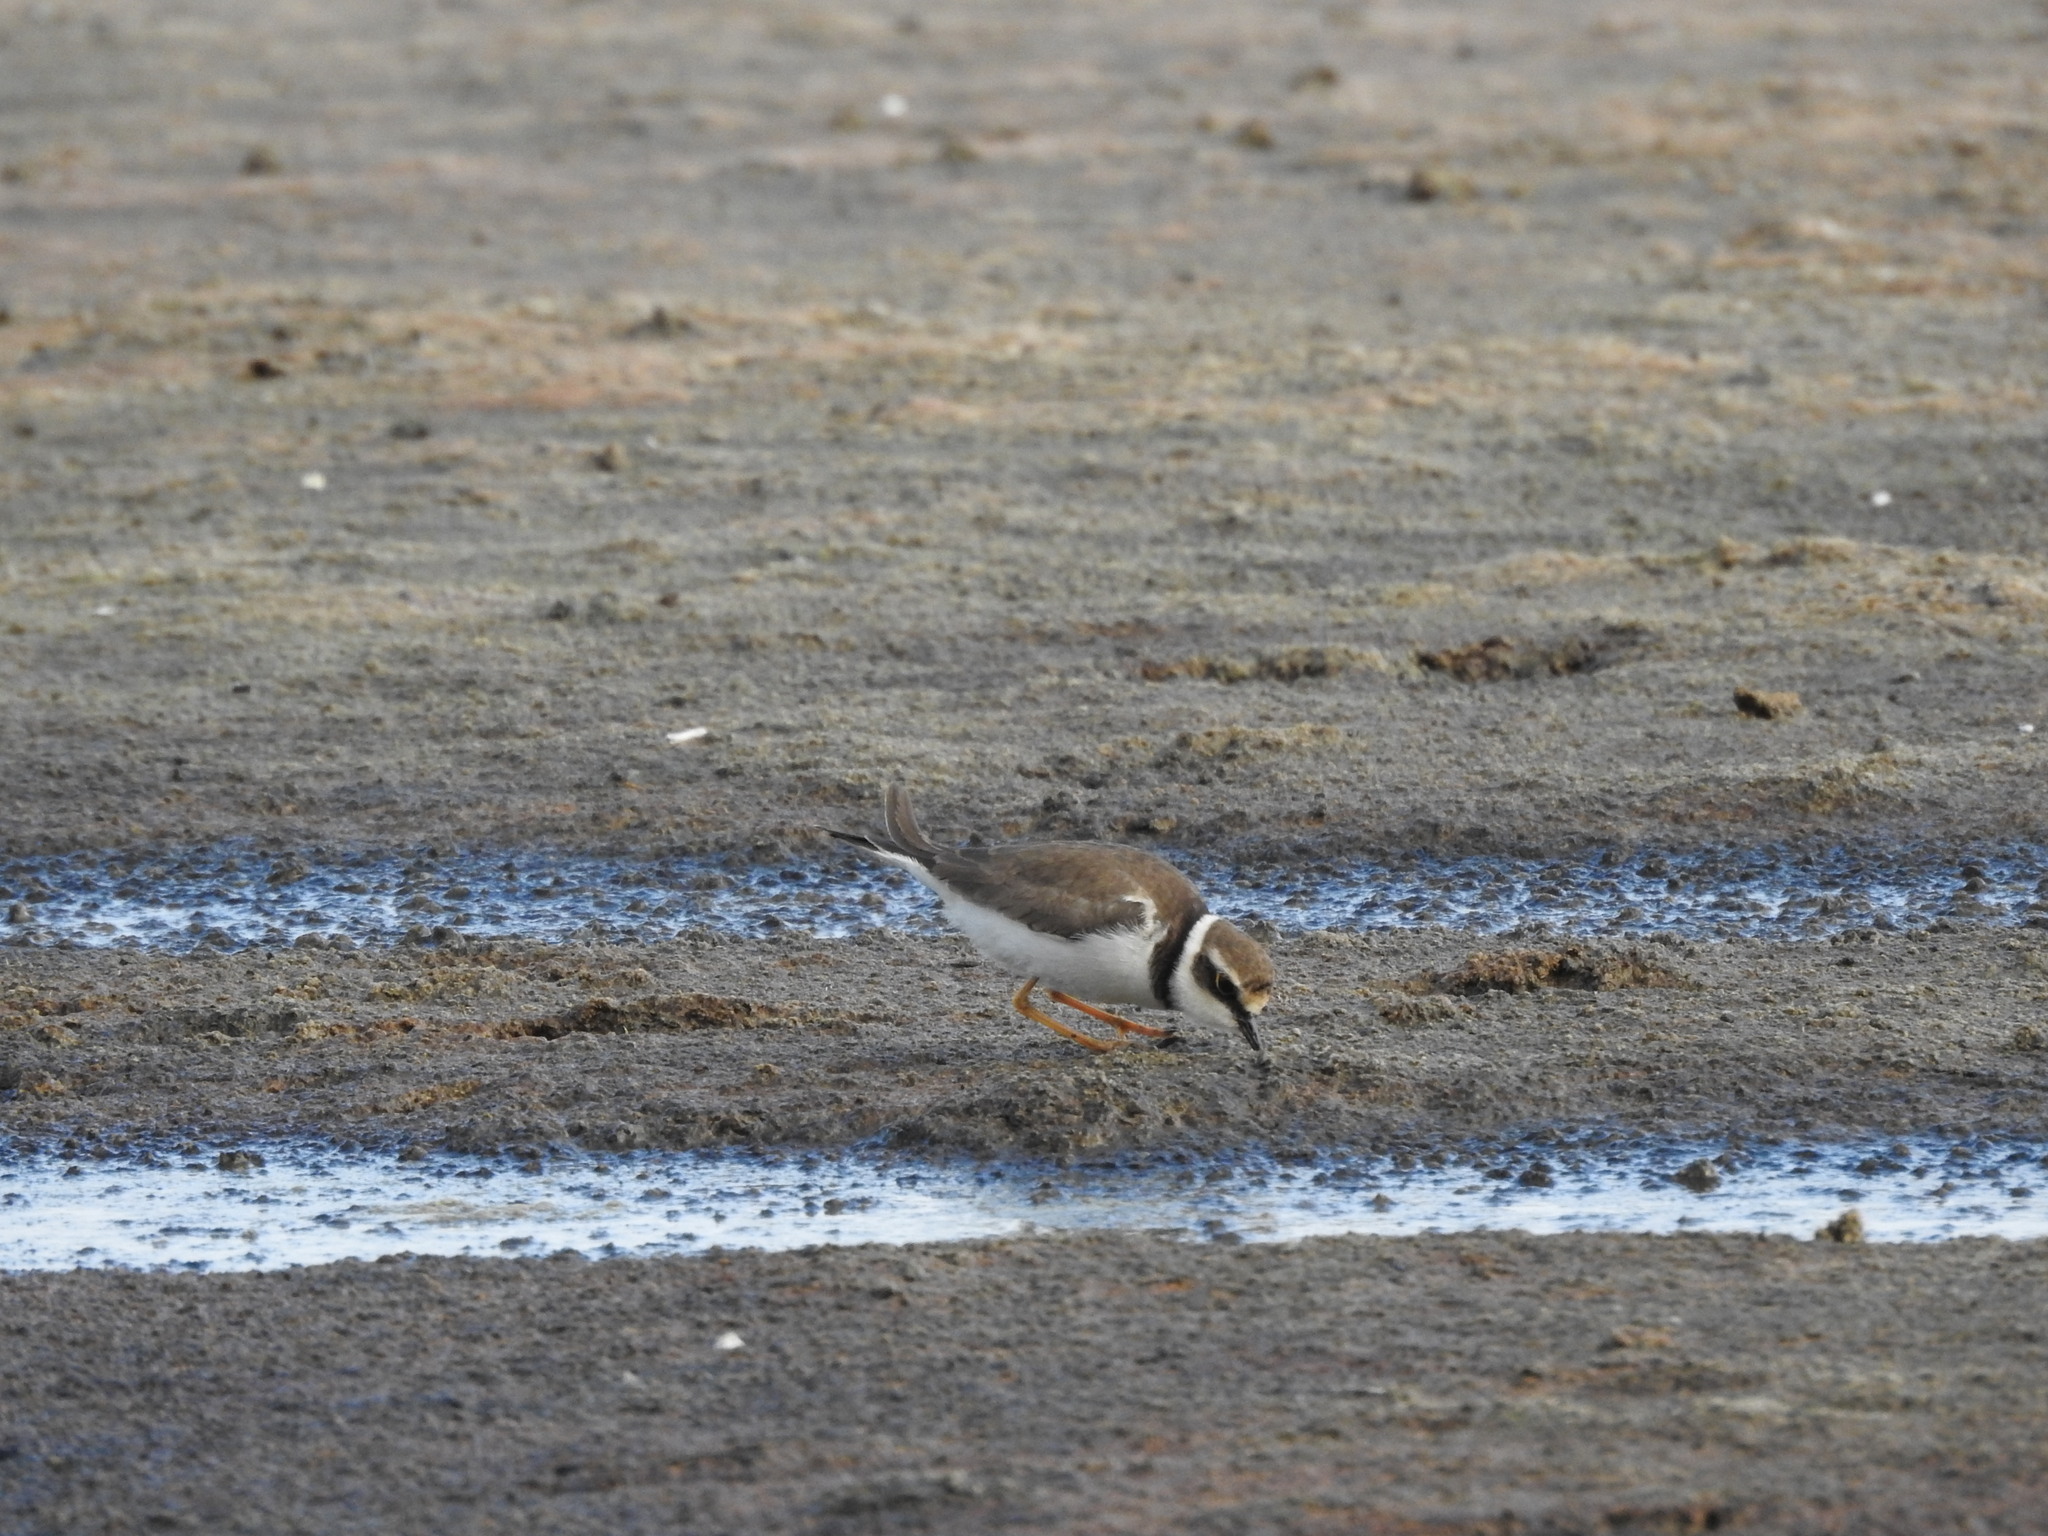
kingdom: Animalia
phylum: Chordata
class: Aves
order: Charadriiformes
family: Charadriidae
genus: Charadrius
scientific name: Charadrius dubius
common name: Little ringed plover
